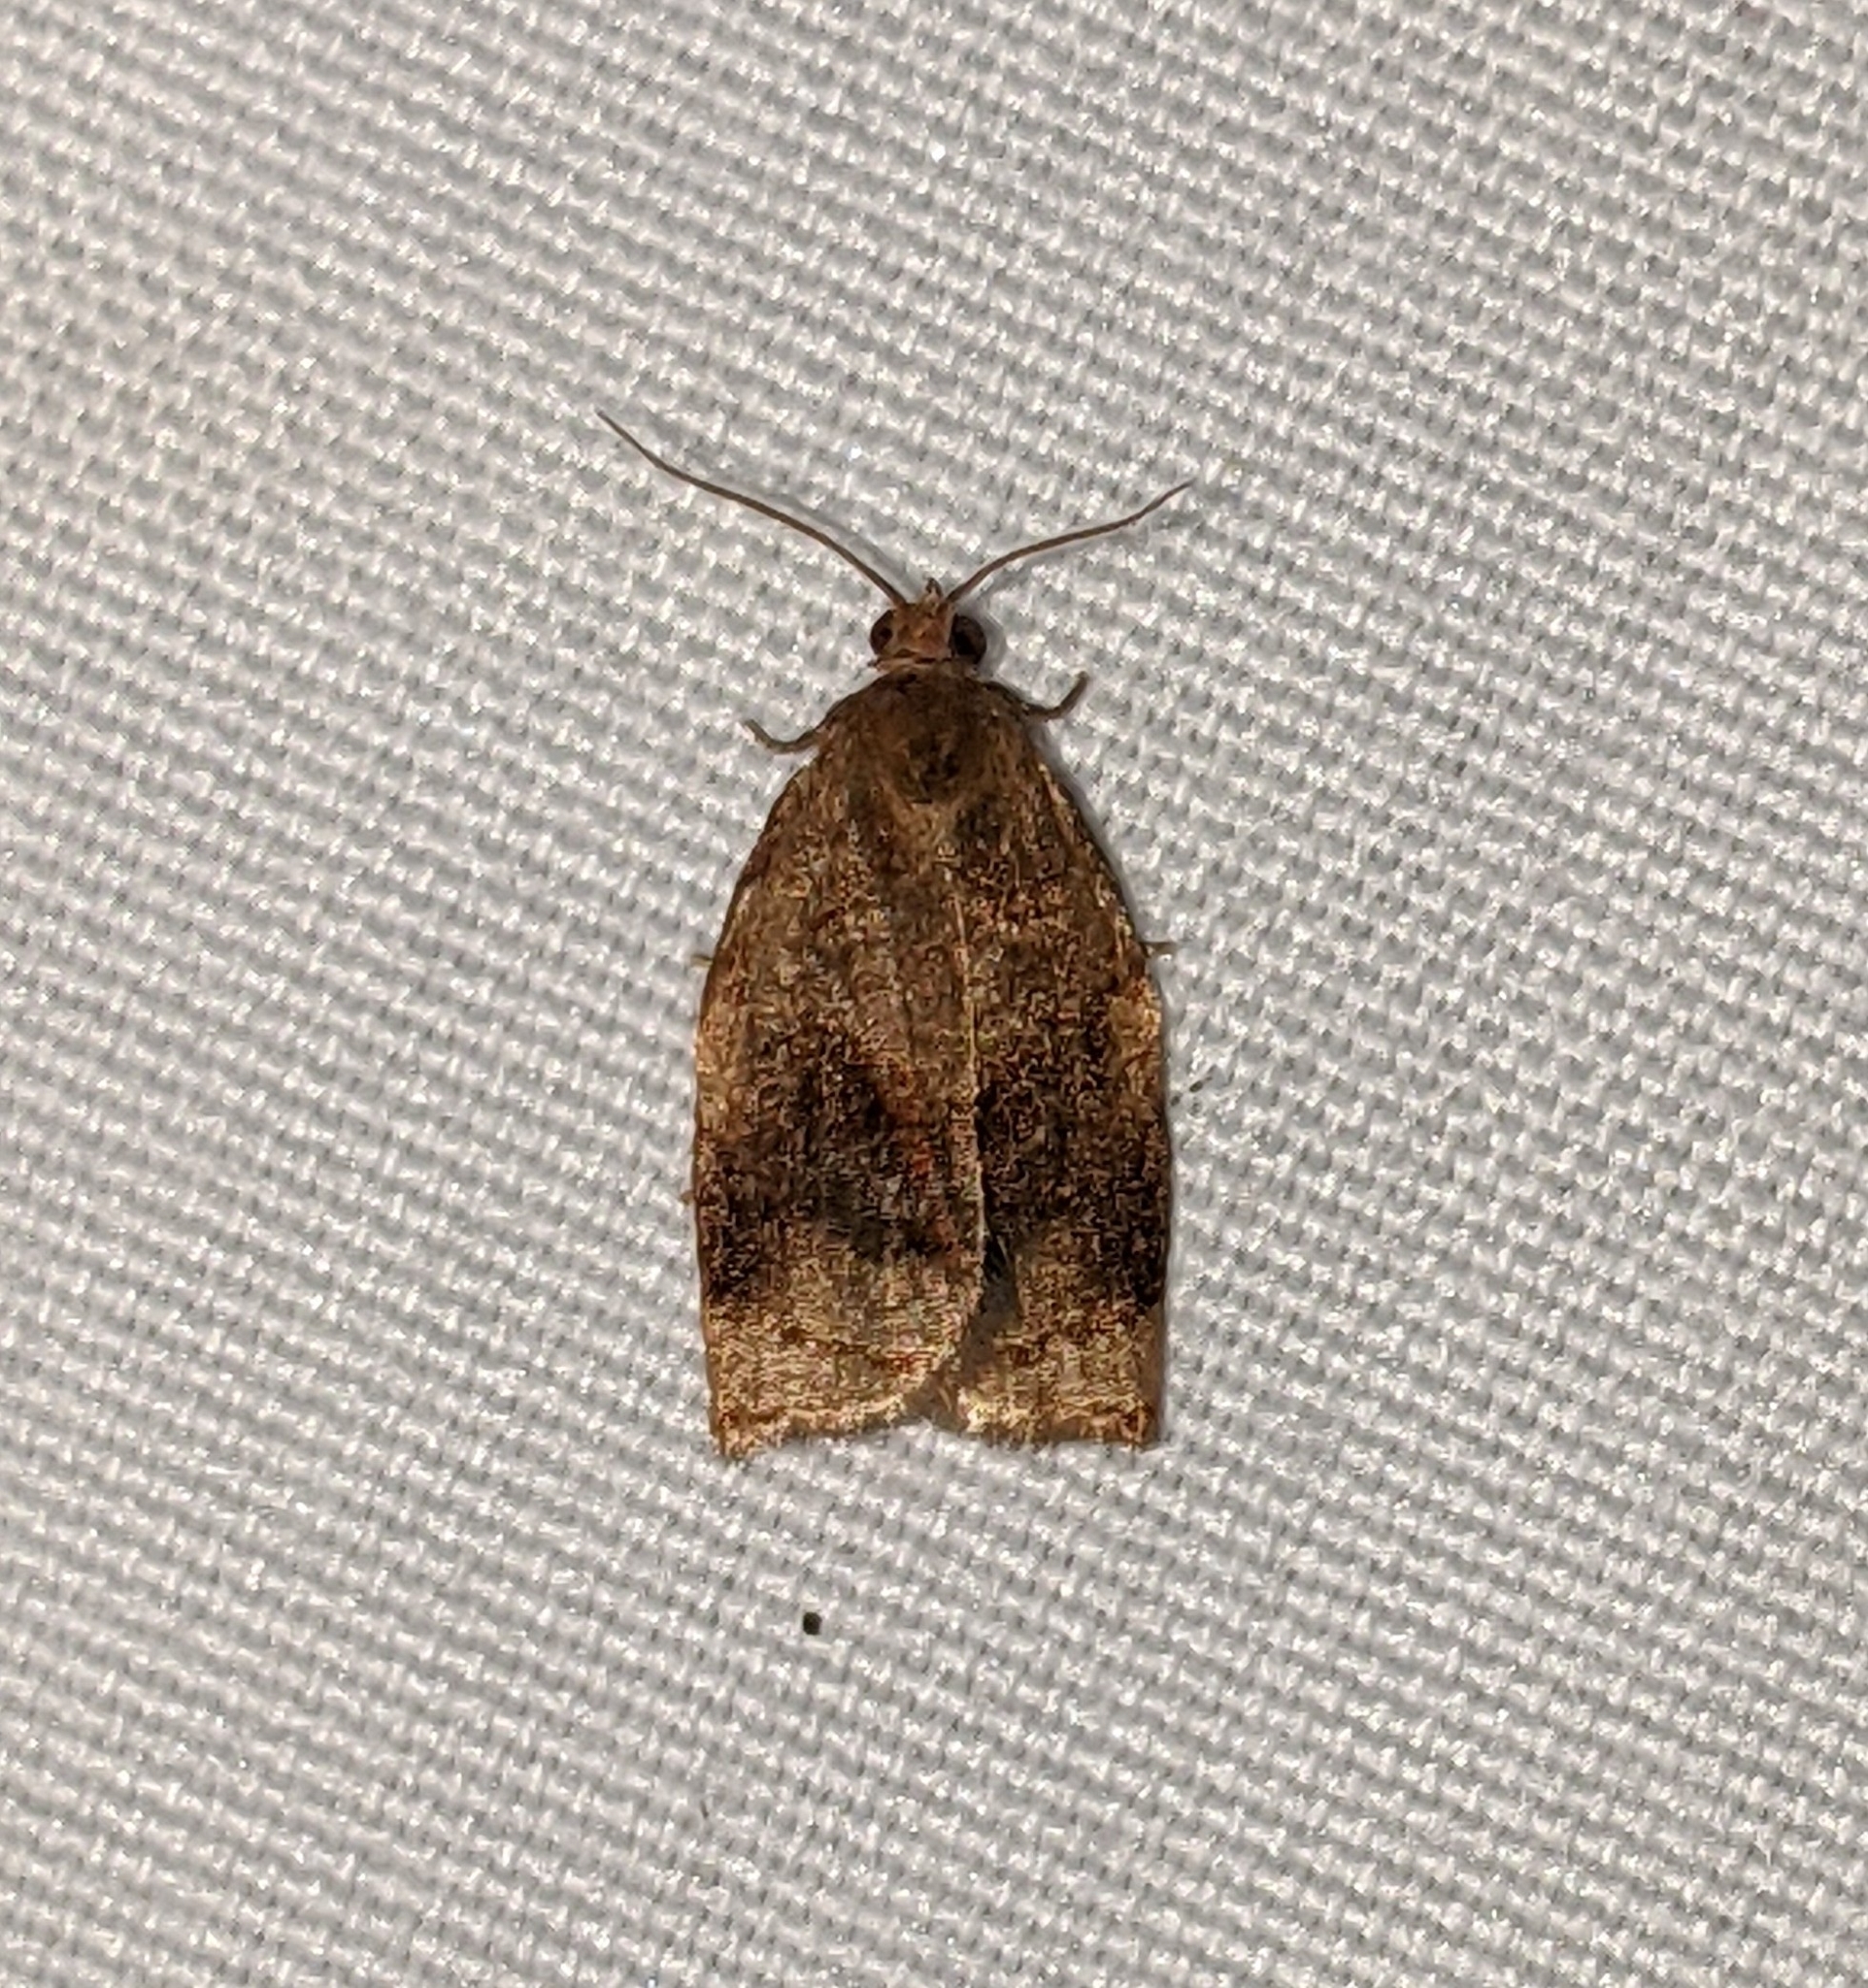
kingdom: Animalia
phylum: Arthropoda
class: Insecta
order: Lepidoptera
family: Tortricidae
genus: Archips
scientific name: Archips fuscocupreanus
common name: Exotic leafroller moth
